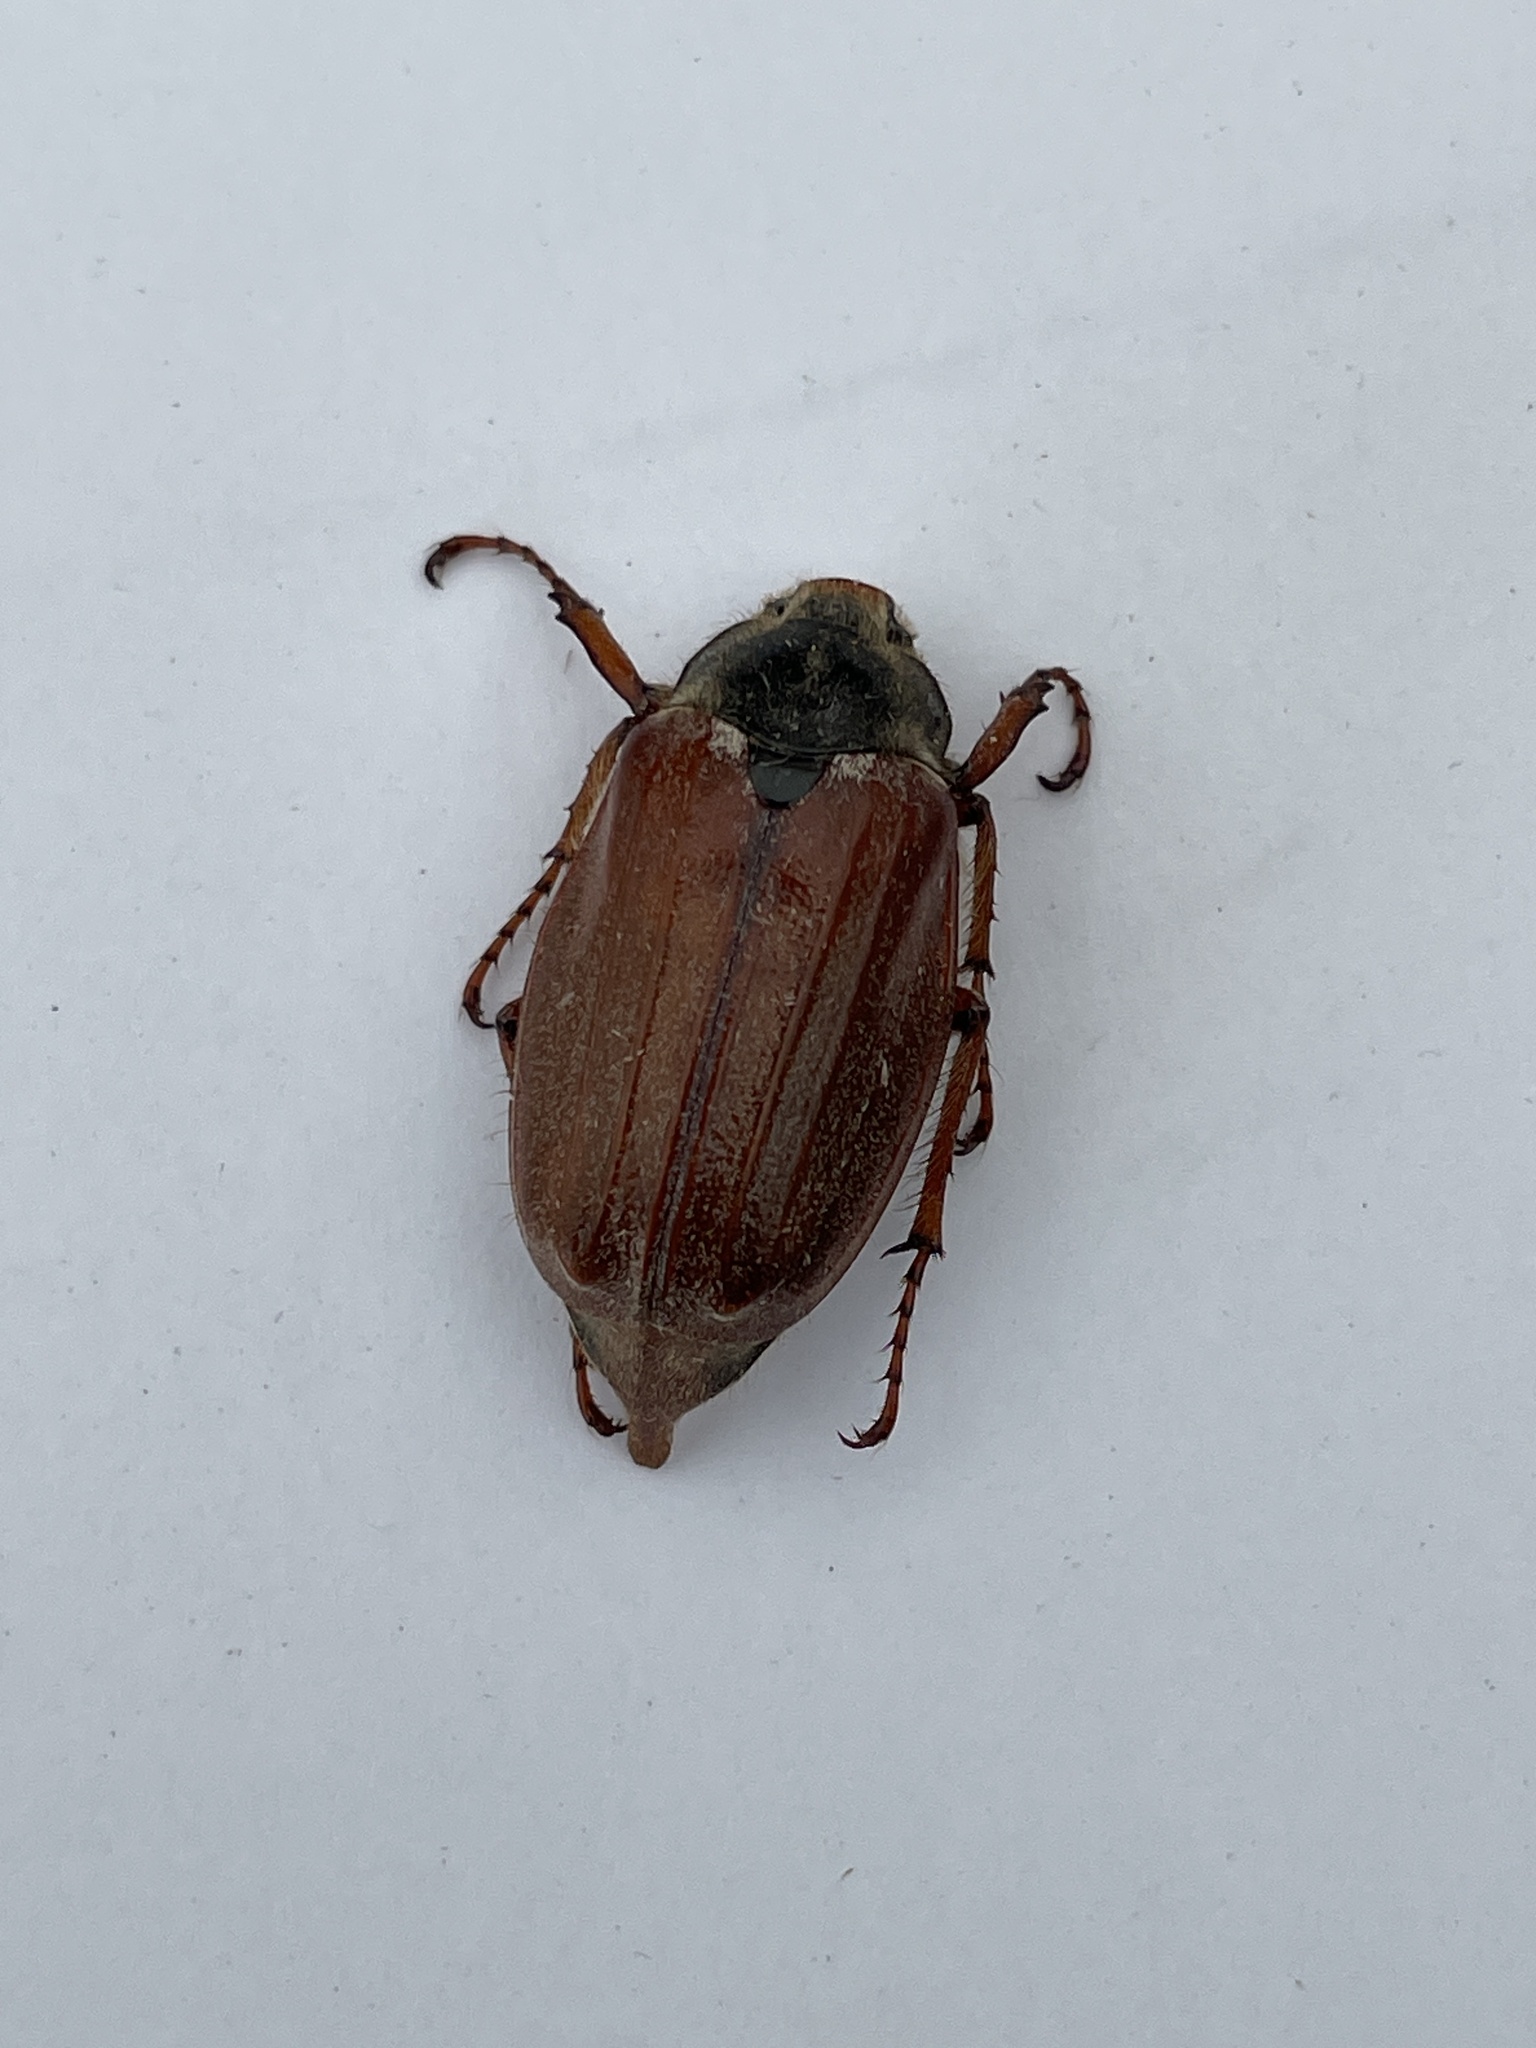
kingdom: Animalia
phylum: Arthropoda
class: Insecta
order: Coleoptera
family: Scarabaeidae
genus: Melolontha
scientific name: Melolontha melolontha
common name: Cockchafer maybeetle
